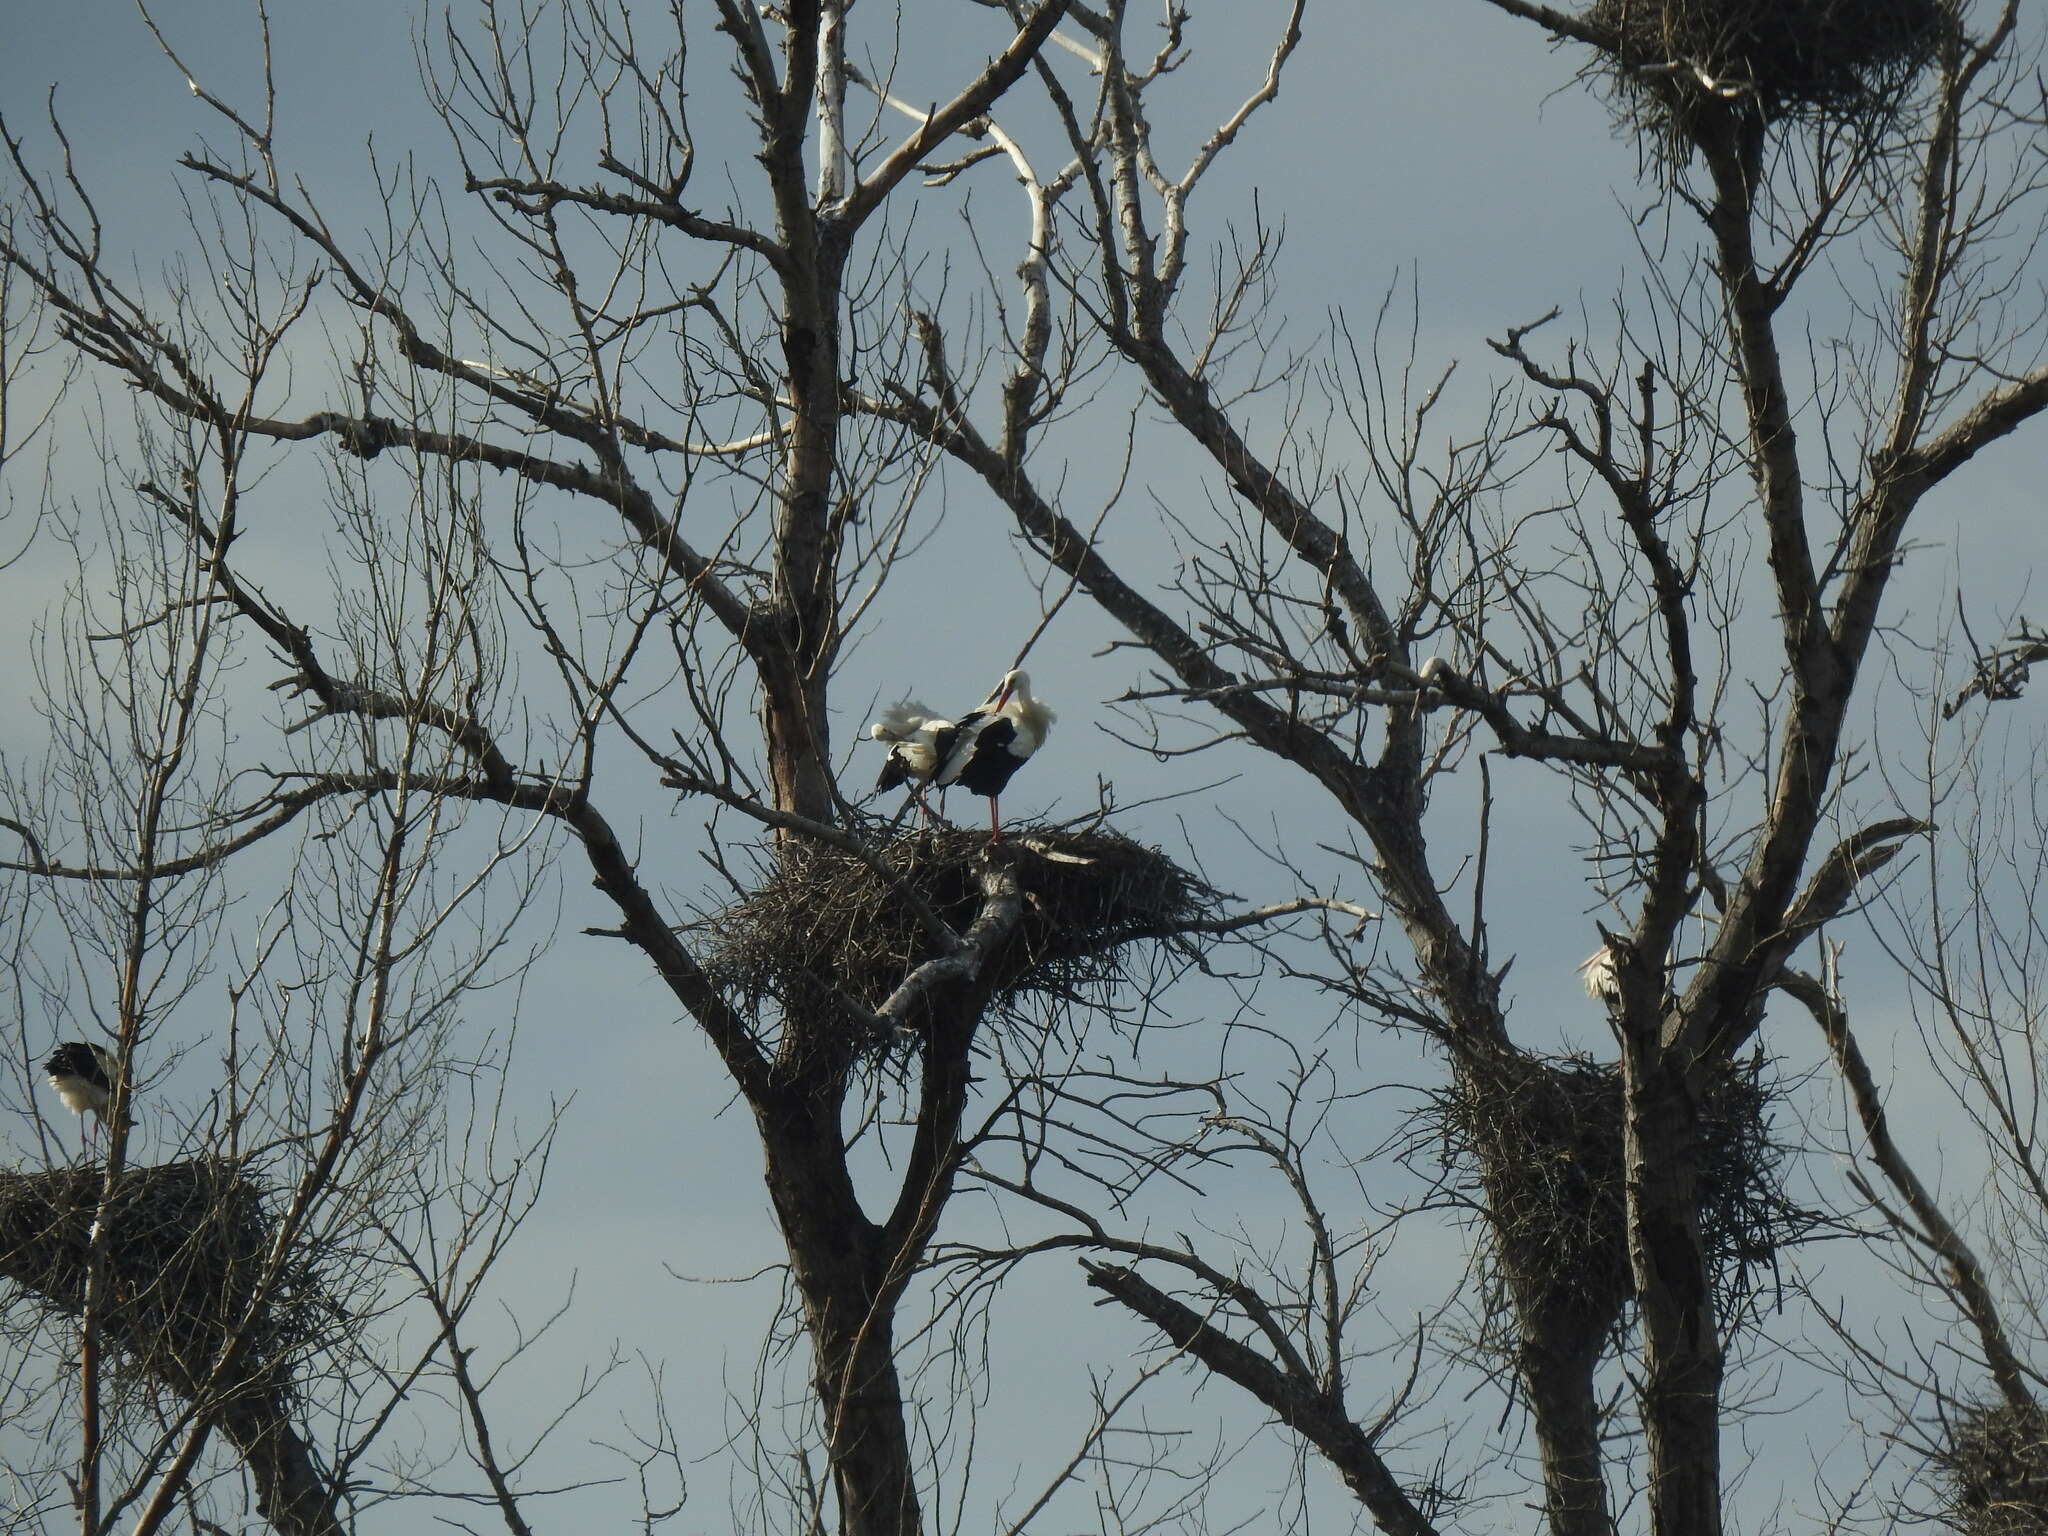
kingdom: Animalia
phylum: Chordata
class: Aves
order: Ciconiiformes
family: Ciconiidae
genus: Ciconia
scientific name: Ciconia ciconia
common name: White stork
